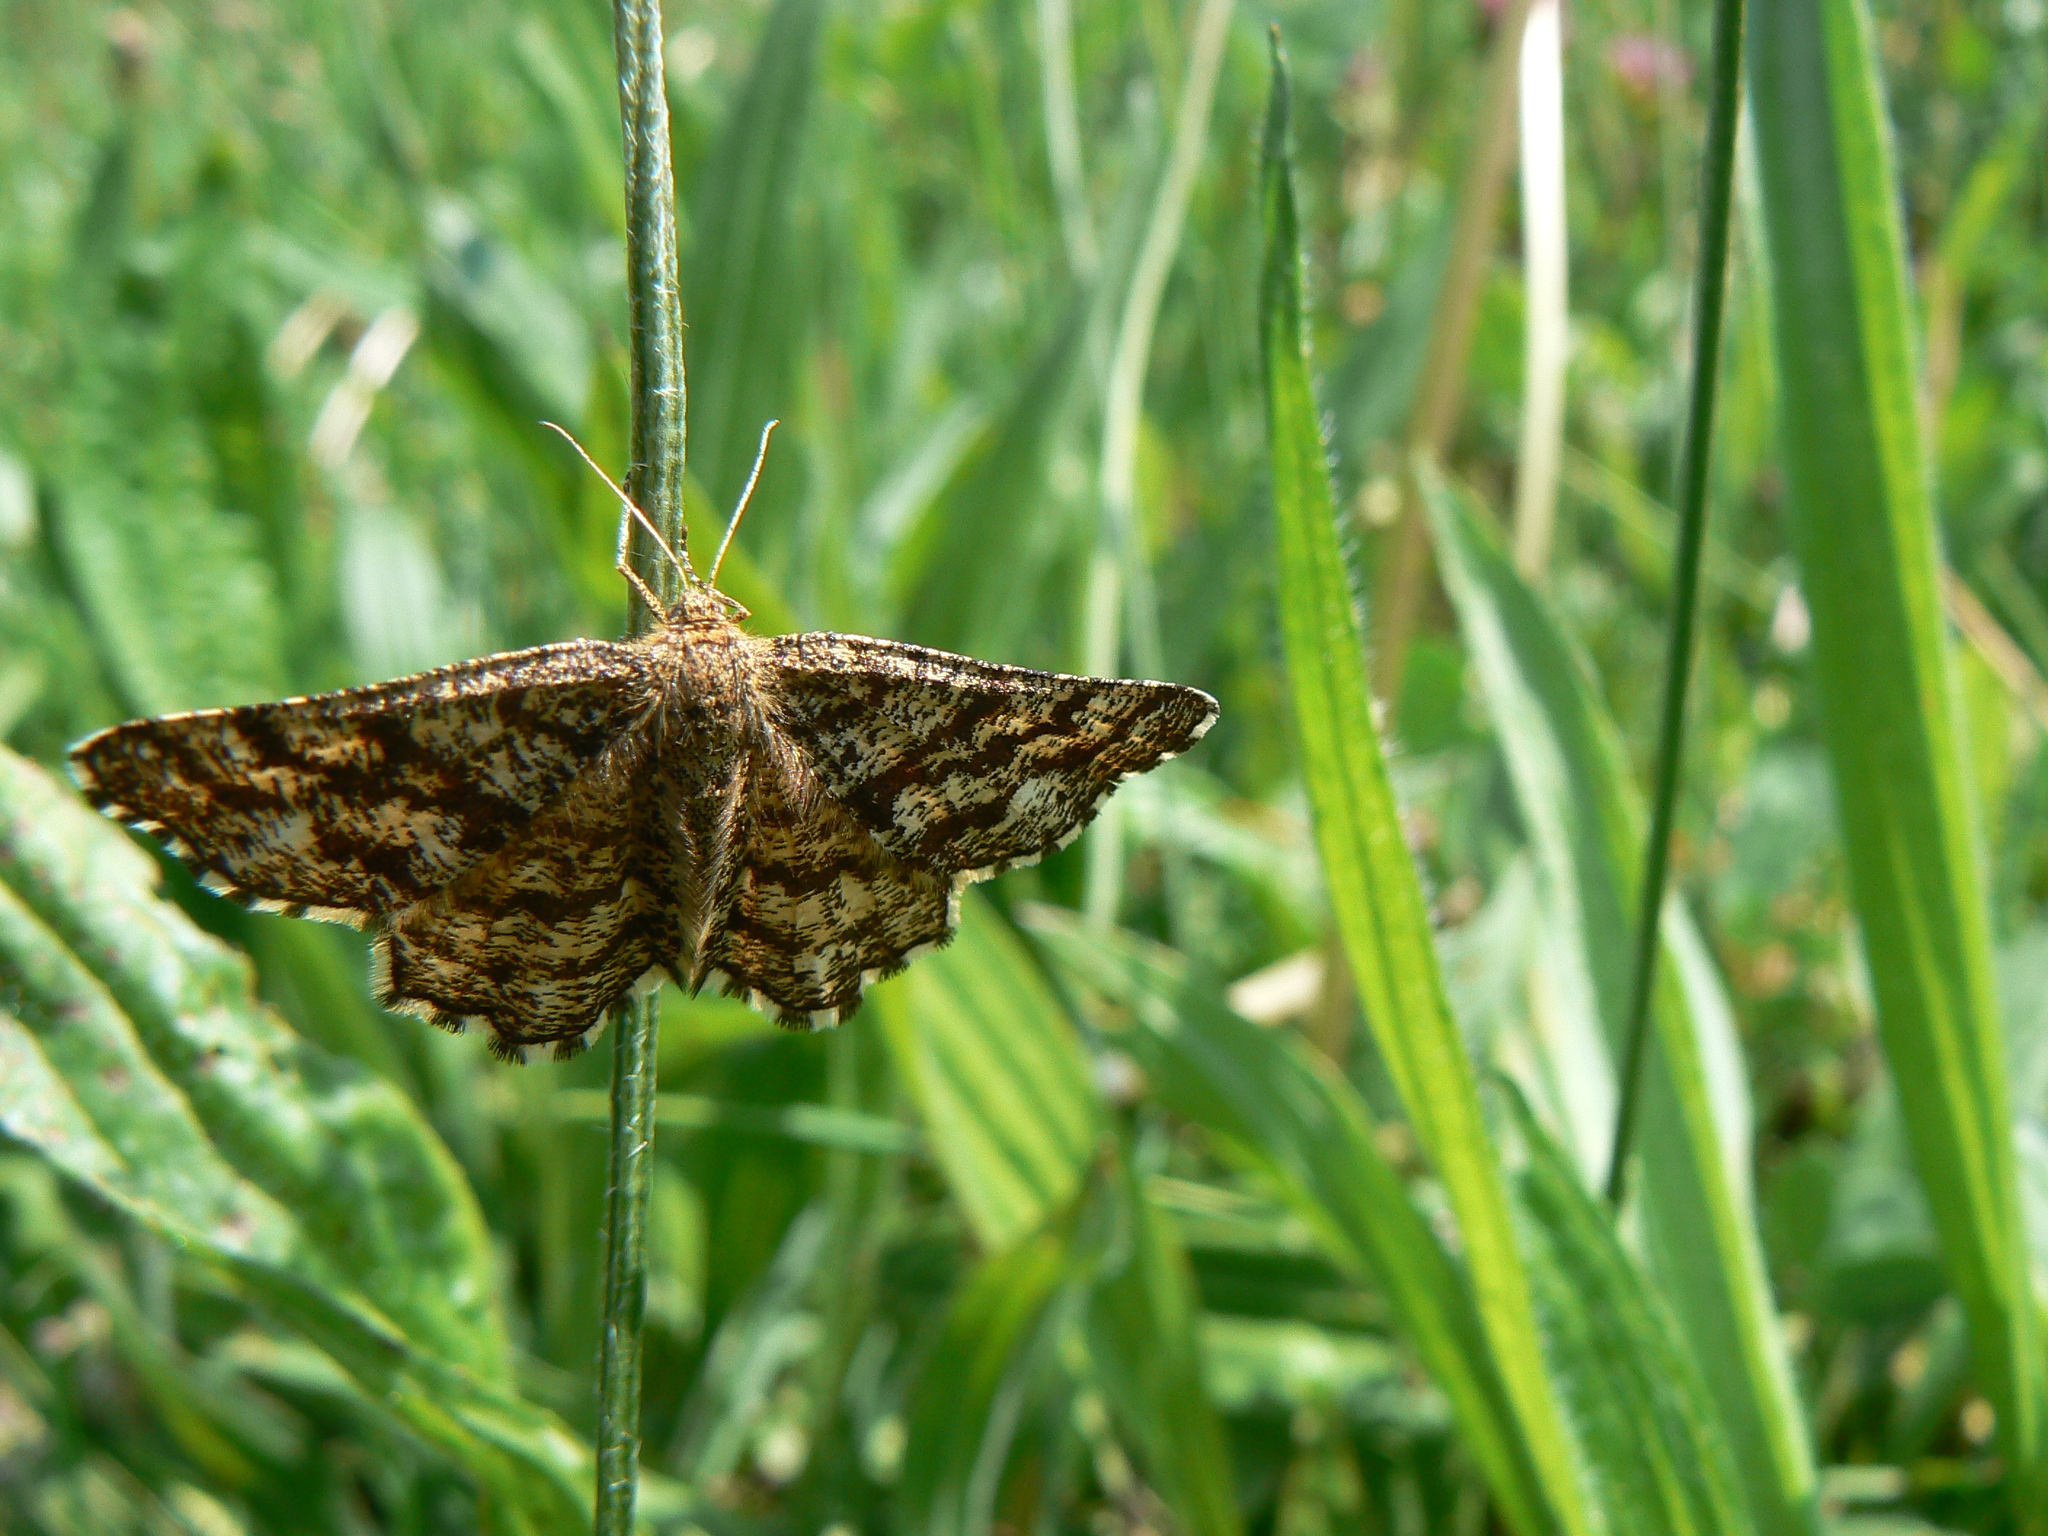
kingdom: Animalia
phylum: Arthropoda
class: Insecta
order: Lepidoptera
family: Geometridae
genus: Ematurga
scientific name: Ematurga atomaria
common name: Common heath
